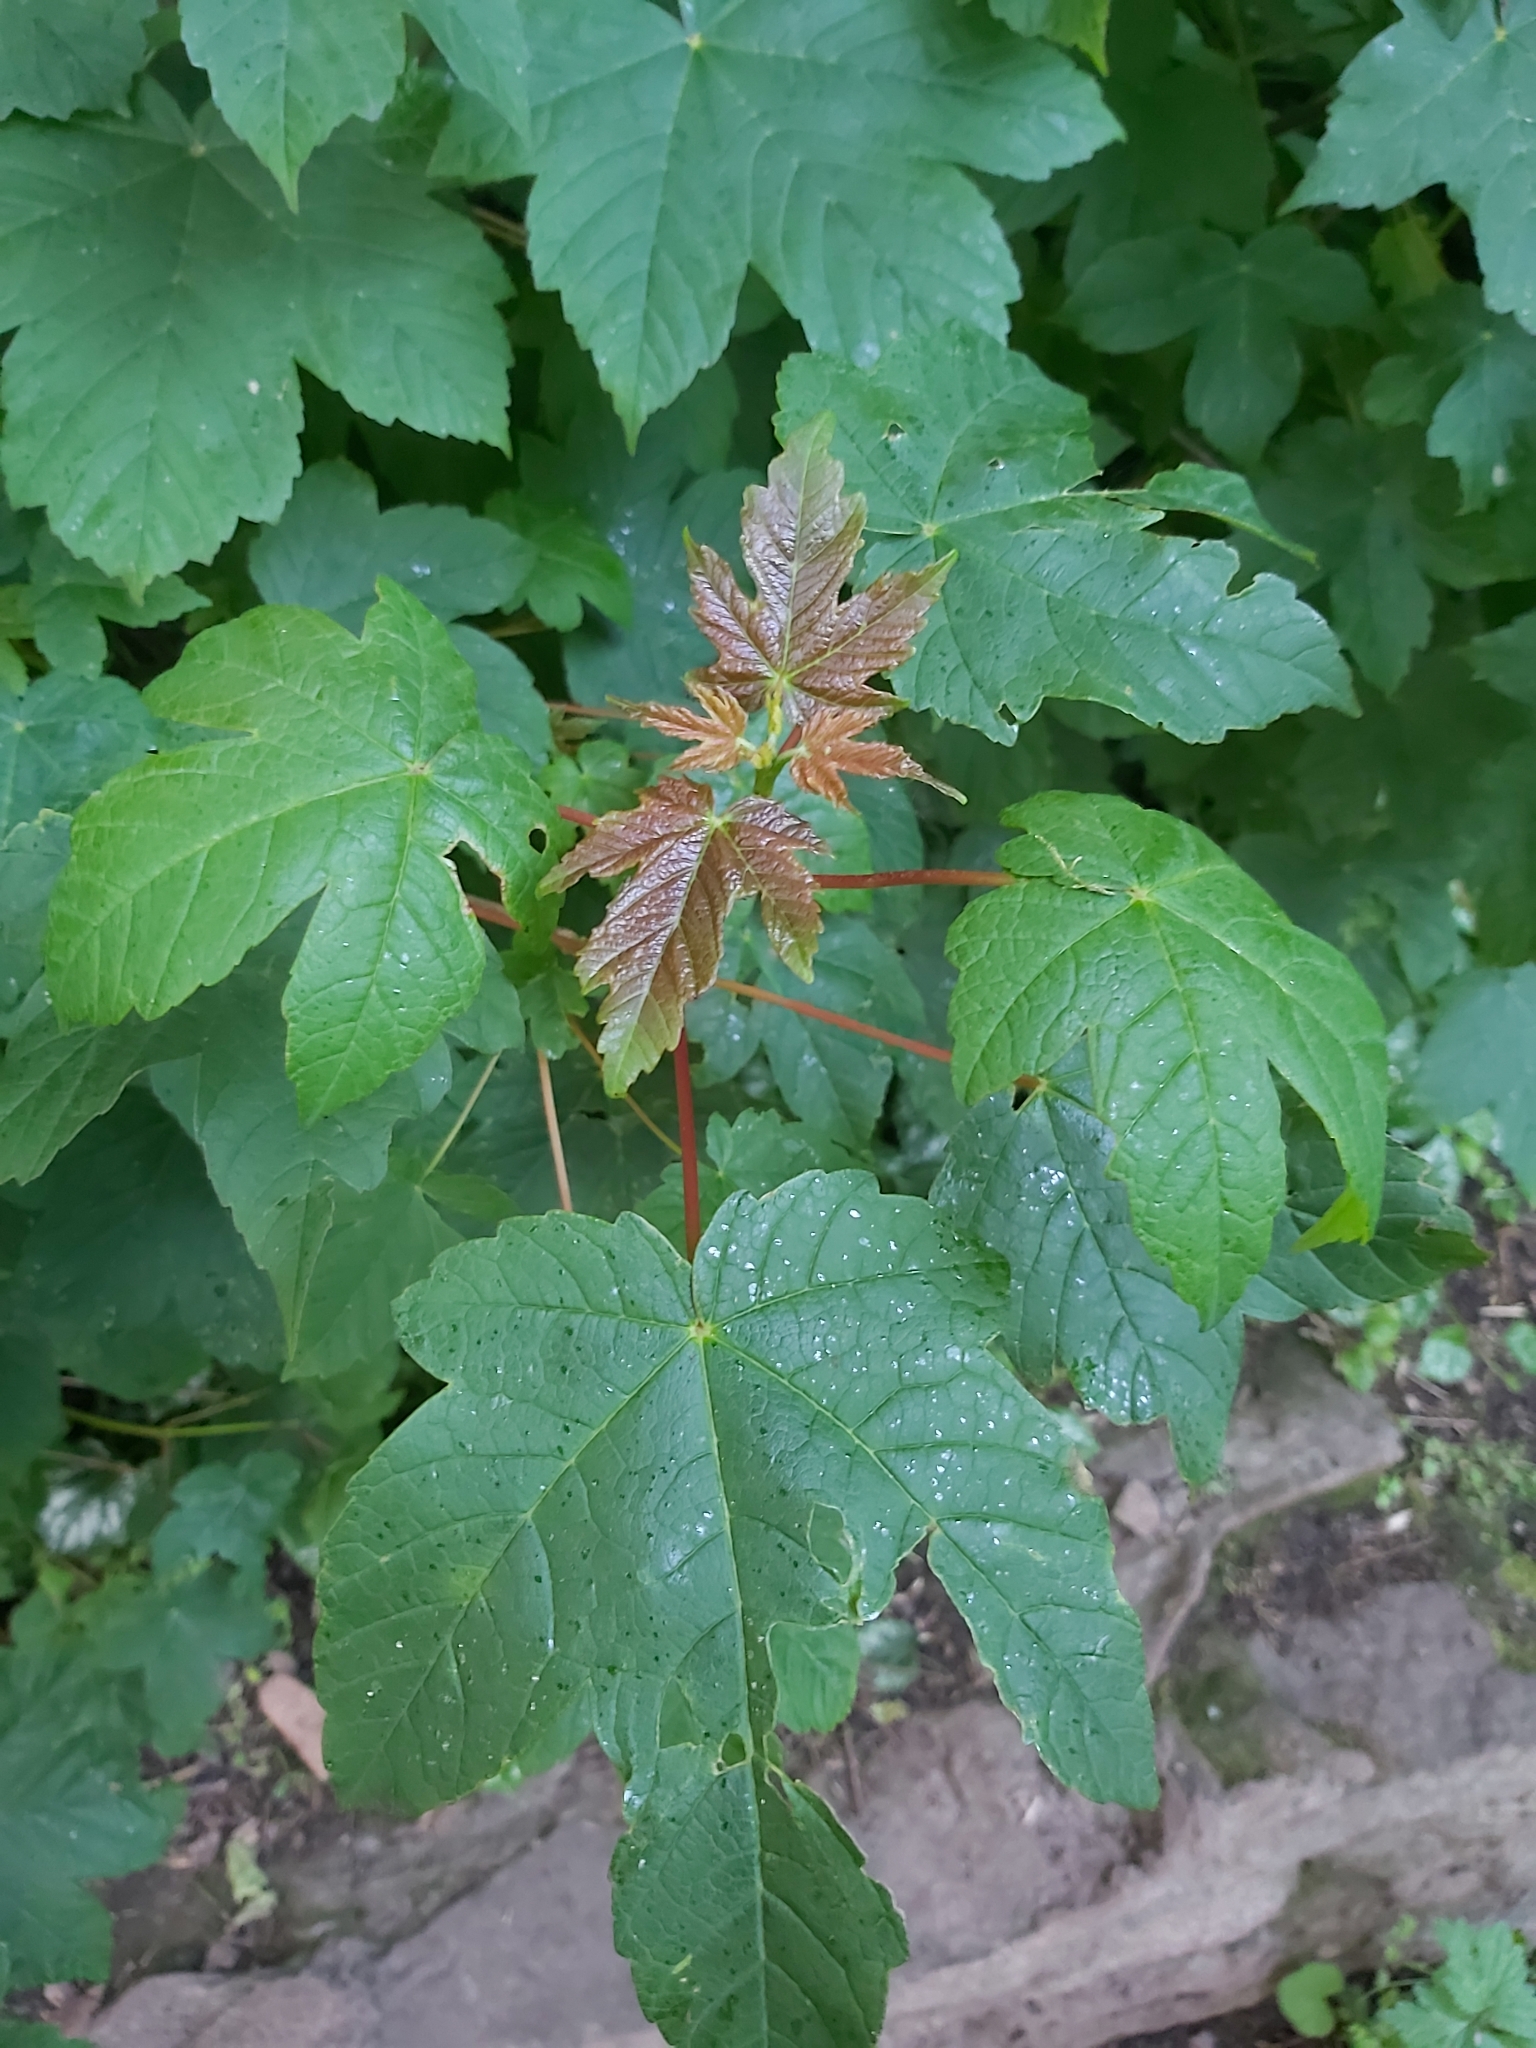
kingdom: Plantae
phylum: Tracheophyta
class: Magnoliopsida
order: Sapindales
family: Sapindaceae
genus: Acer
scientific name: Acer pseudoplatanus
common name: Sycamore
